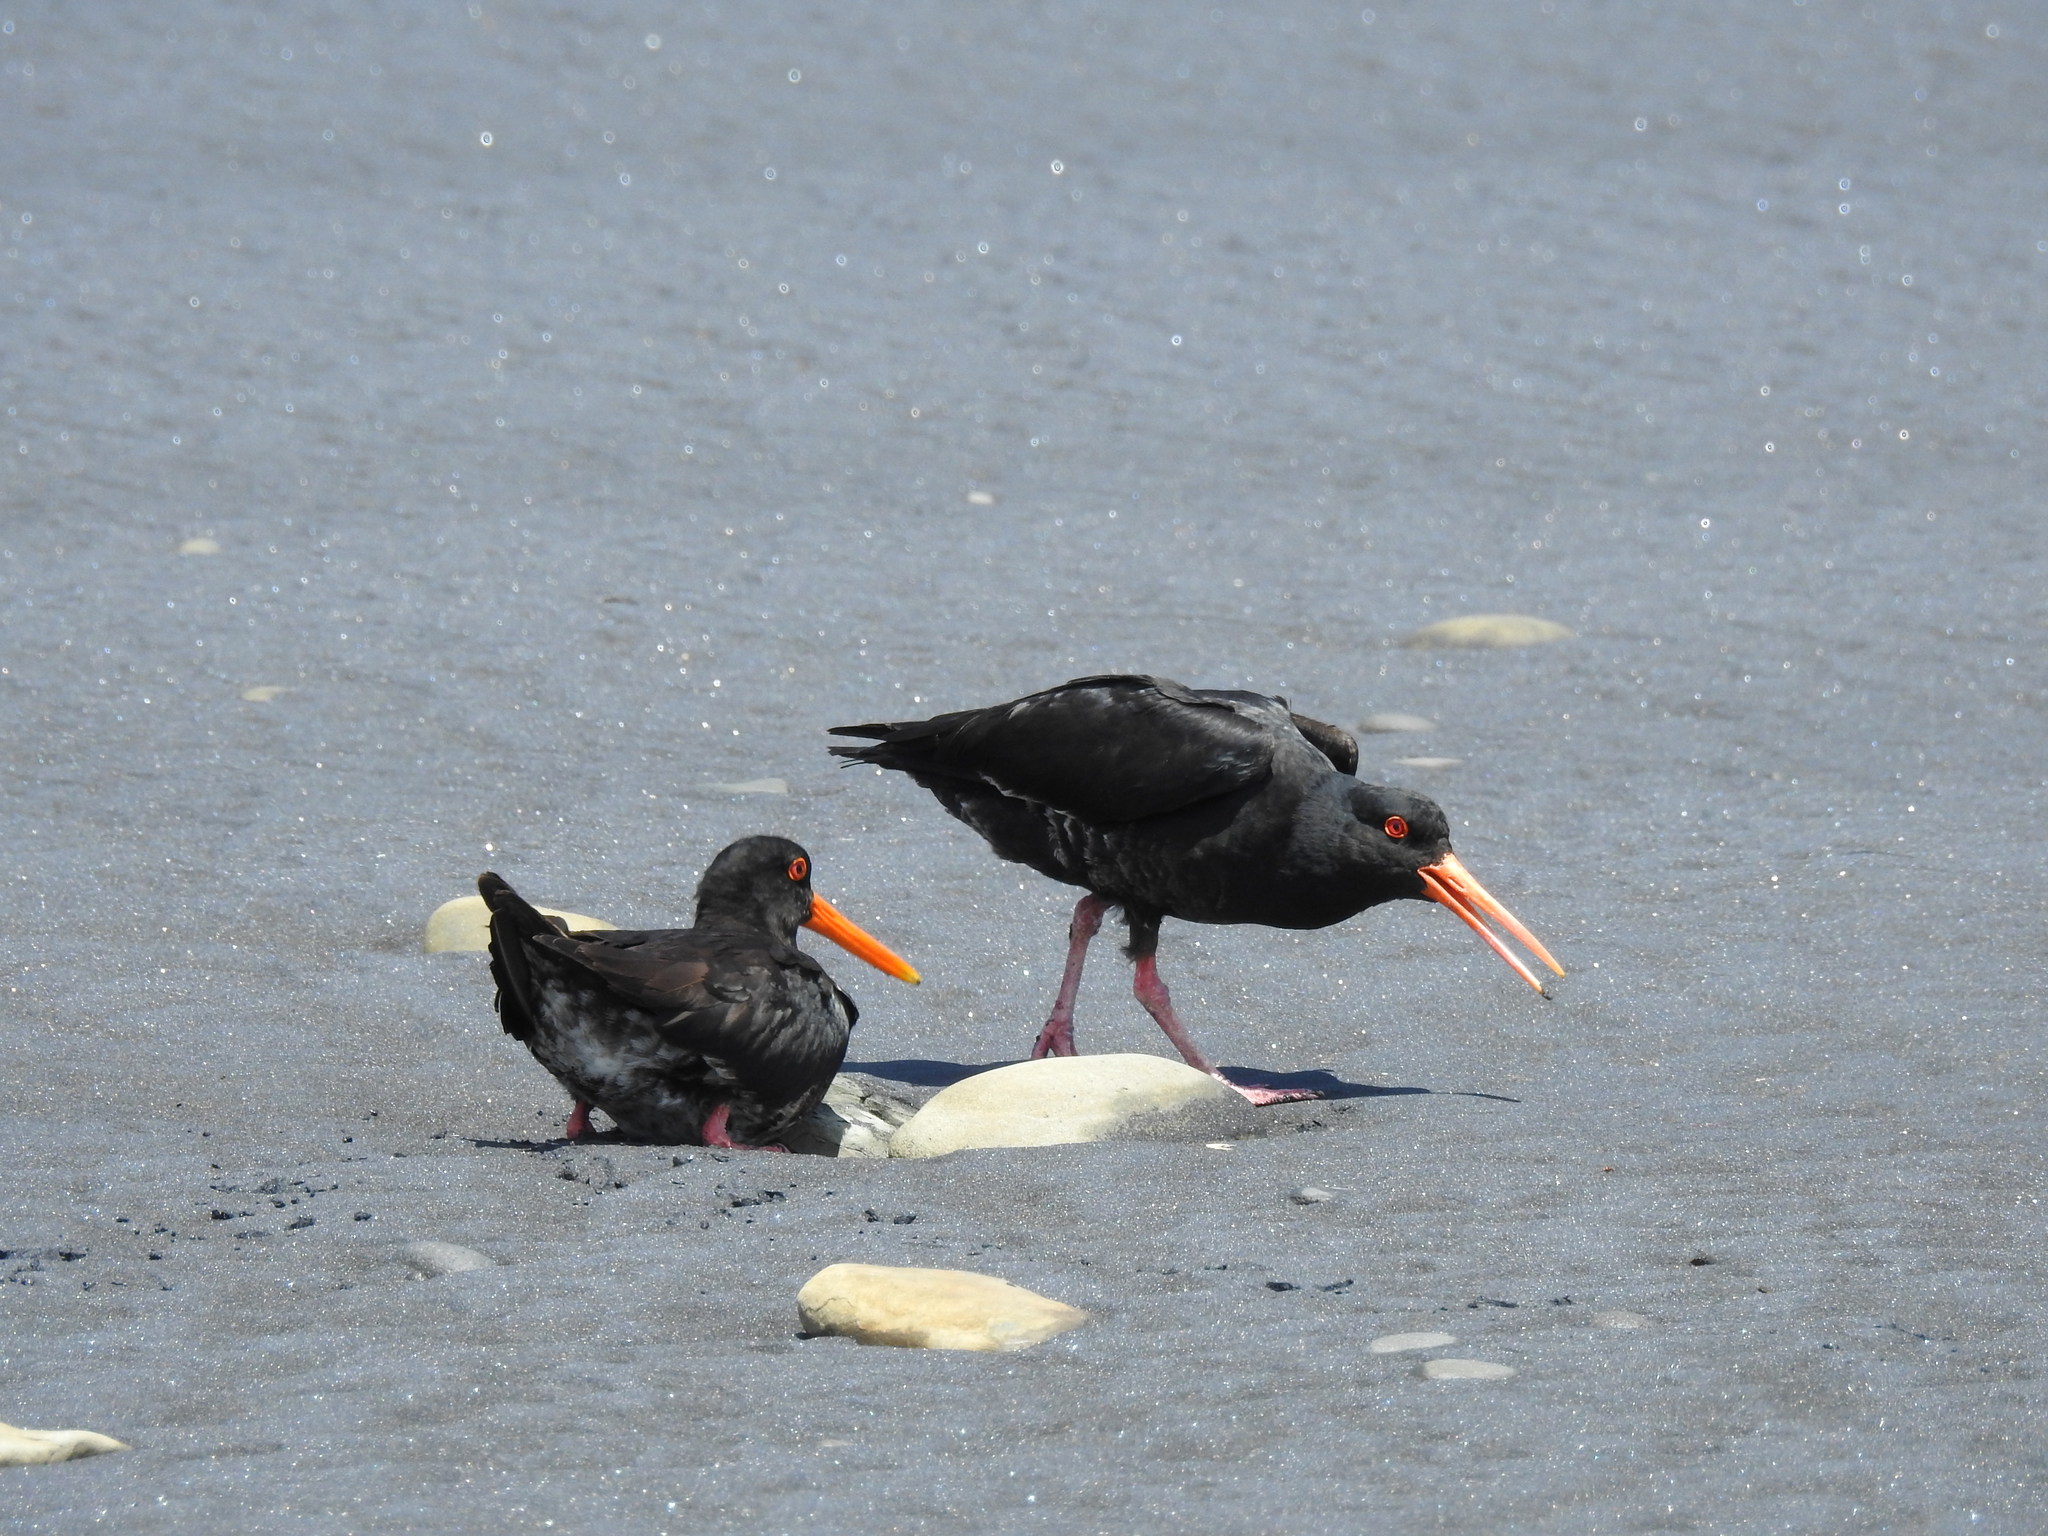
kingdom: Animalia
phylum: Chordata
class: Aves
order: Charadriiformes
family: Haematopodidae
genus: Haematopus
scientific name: Haematopus unicolor
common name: Variable oystercatcher
